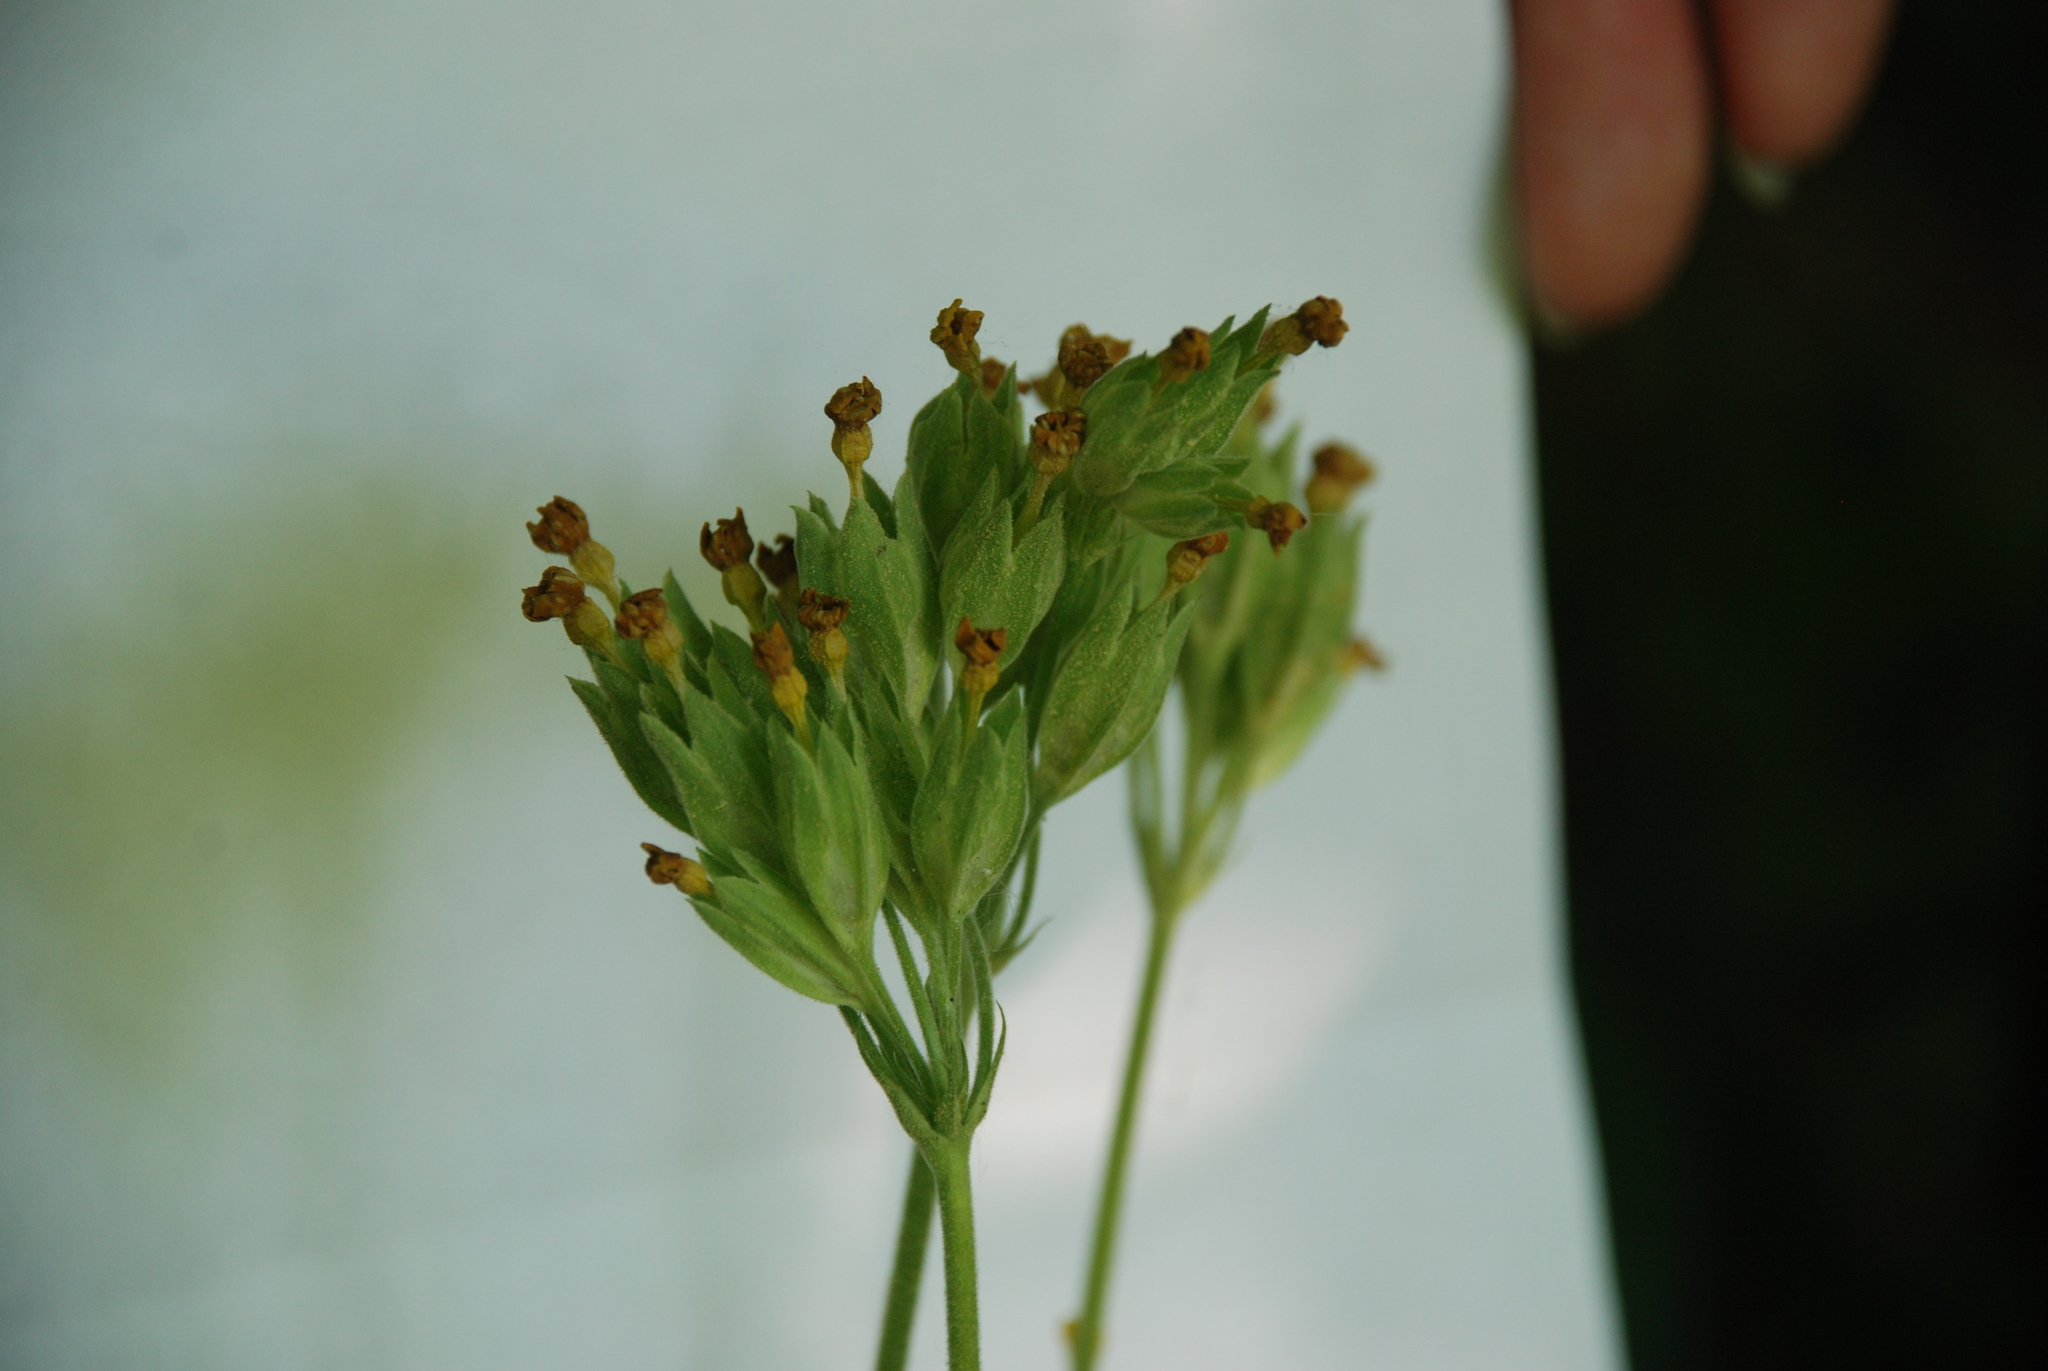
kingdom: Plantae
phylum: Tracheophyta
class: Magnoliopsida
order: Ericales
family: Primulaceae
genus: Primula
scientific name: Primula veris
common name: Cowslip
